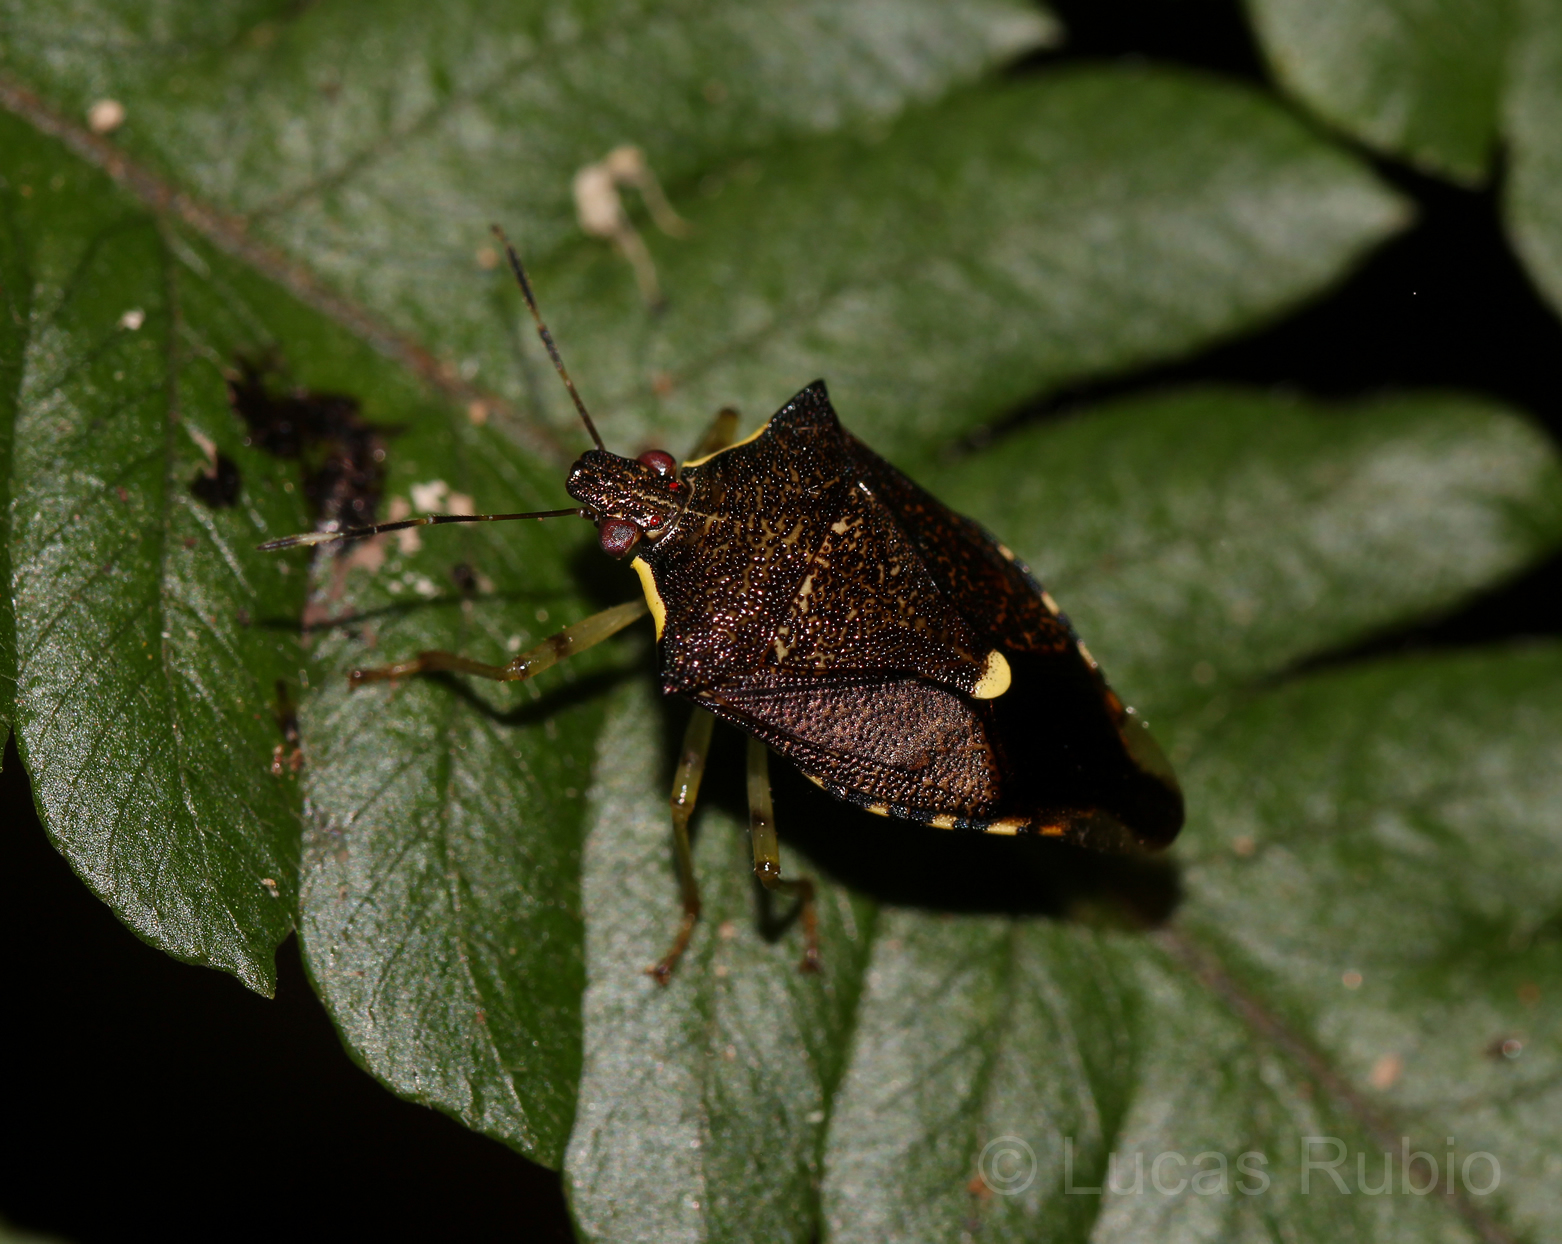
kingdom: Animalia
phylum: Arthropoda
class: Insecta
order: Hemiptera
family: Pentatomidae
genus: Podisus
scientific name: Podisus aenescens
